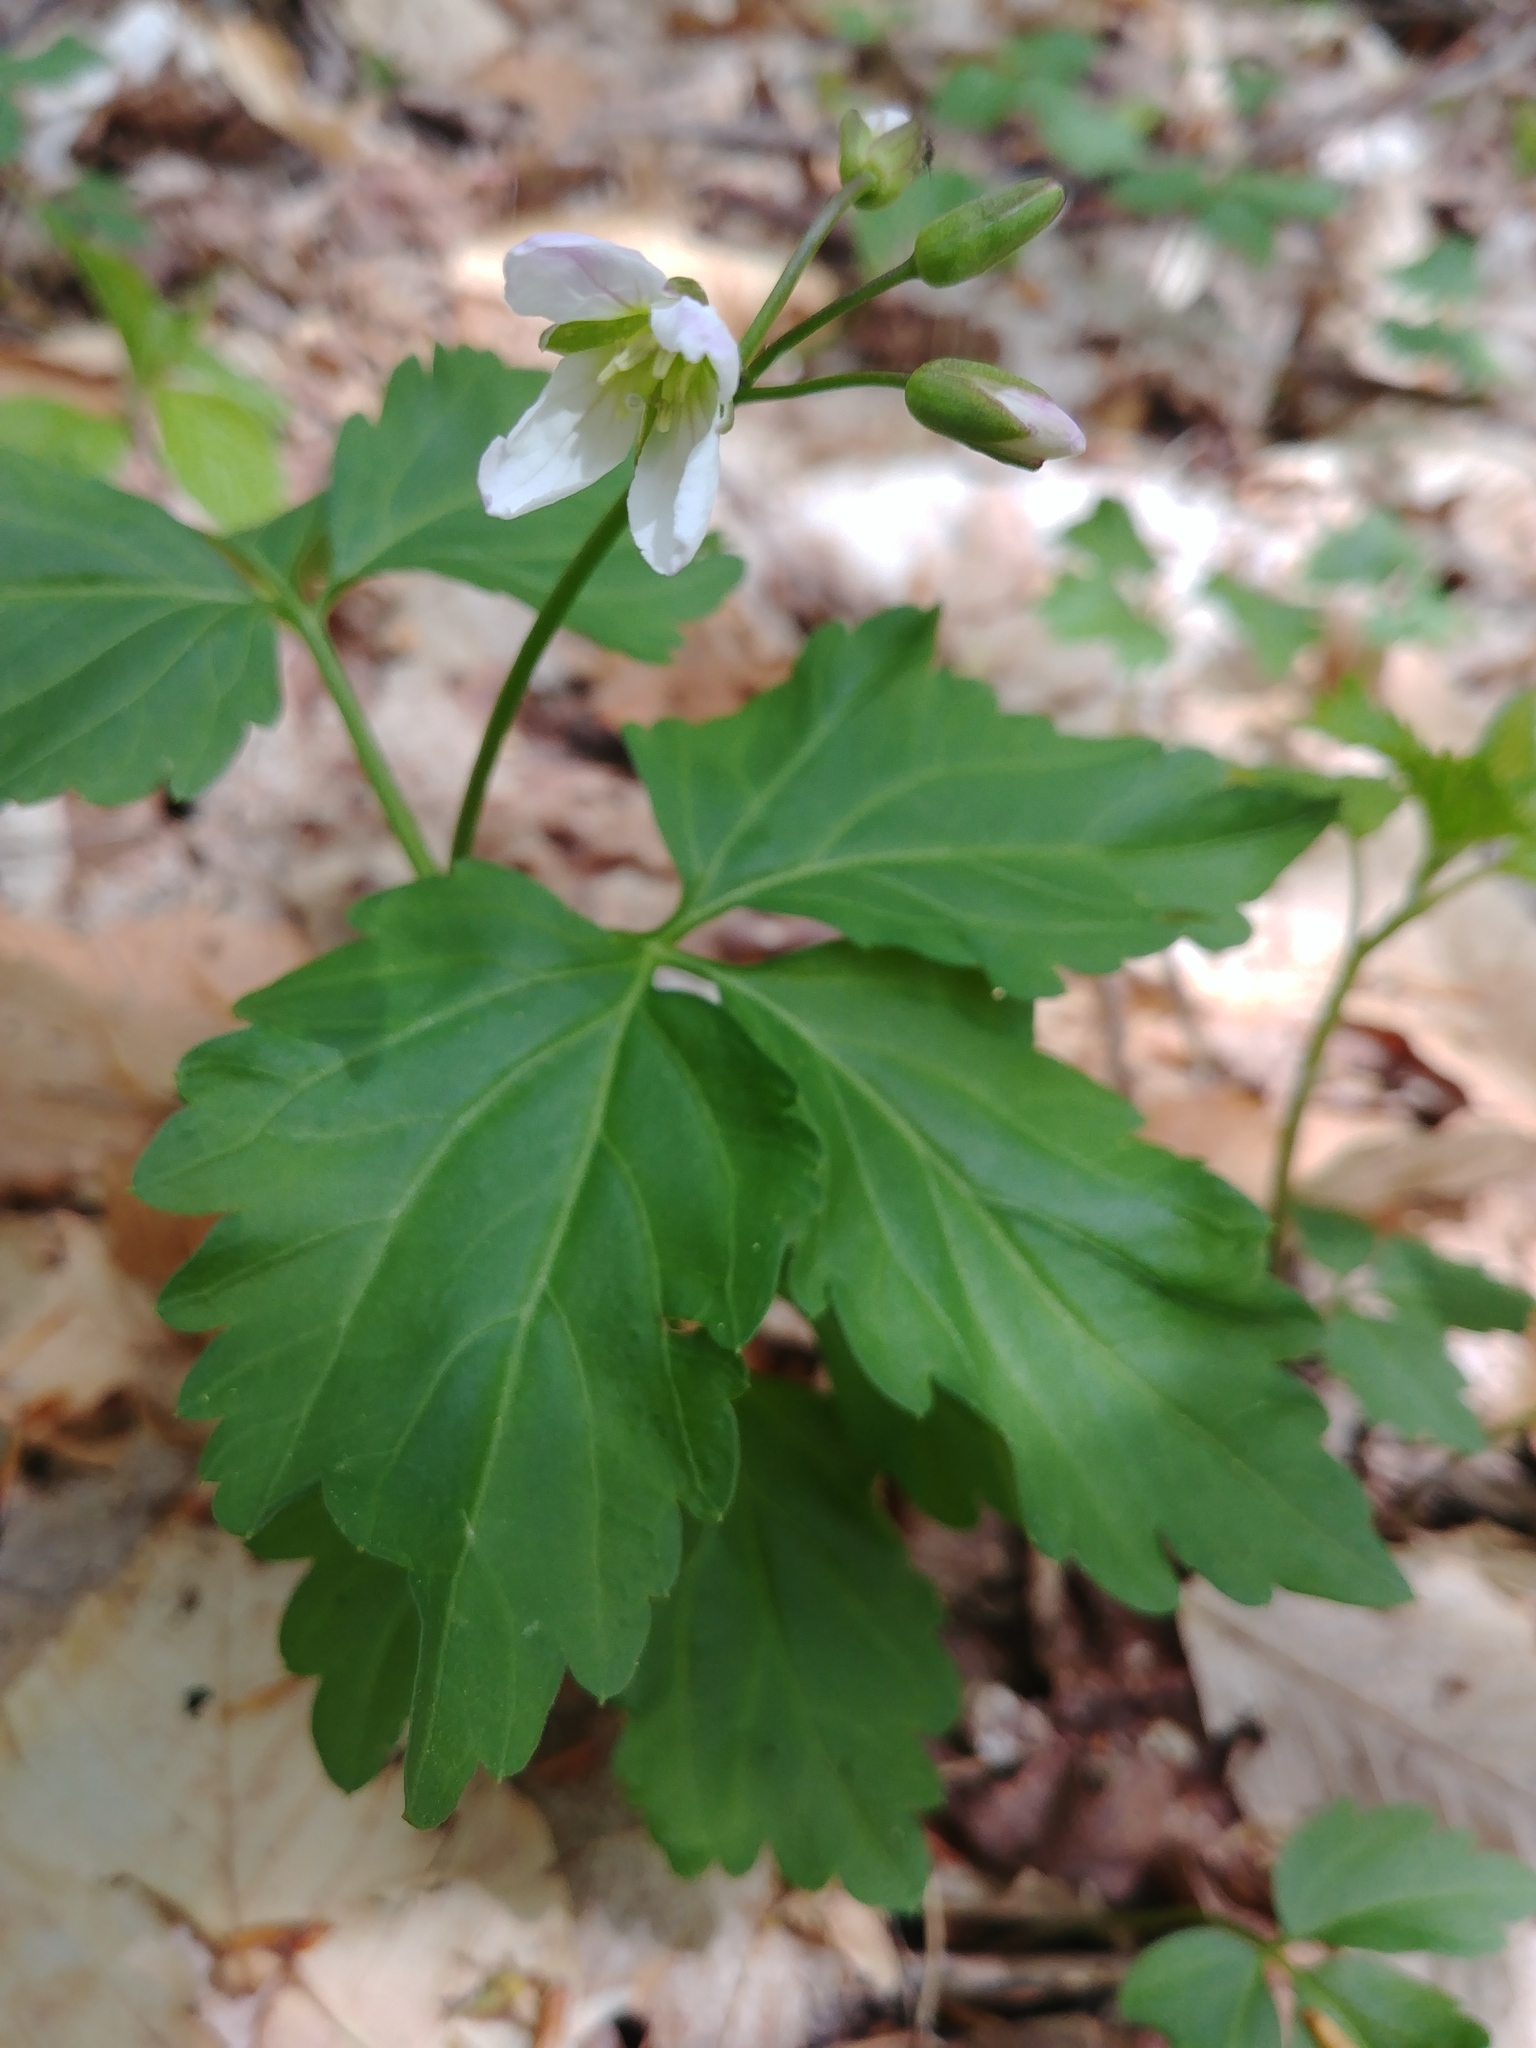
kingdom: Plantae
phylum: Tracheophyta
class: Magnoliopsida
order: Brassicales
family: Brassicaceae
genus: Cardamine
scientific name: Cardamine diphylla
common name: Broad-leaved toothwort
